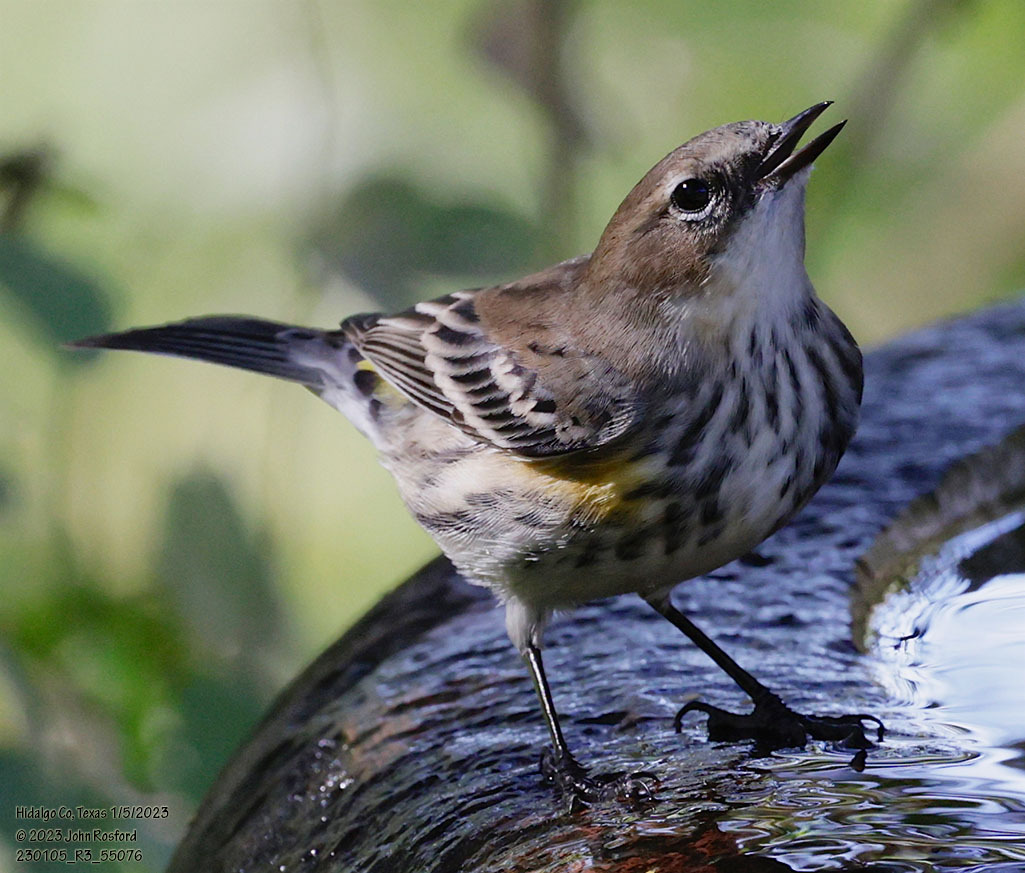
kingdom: Animalia
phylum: Chordata
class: Aves
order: Passeriformes
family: Parulidae
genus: Setophaga
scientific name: Setophaga coronata
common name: Myrtle warbler
